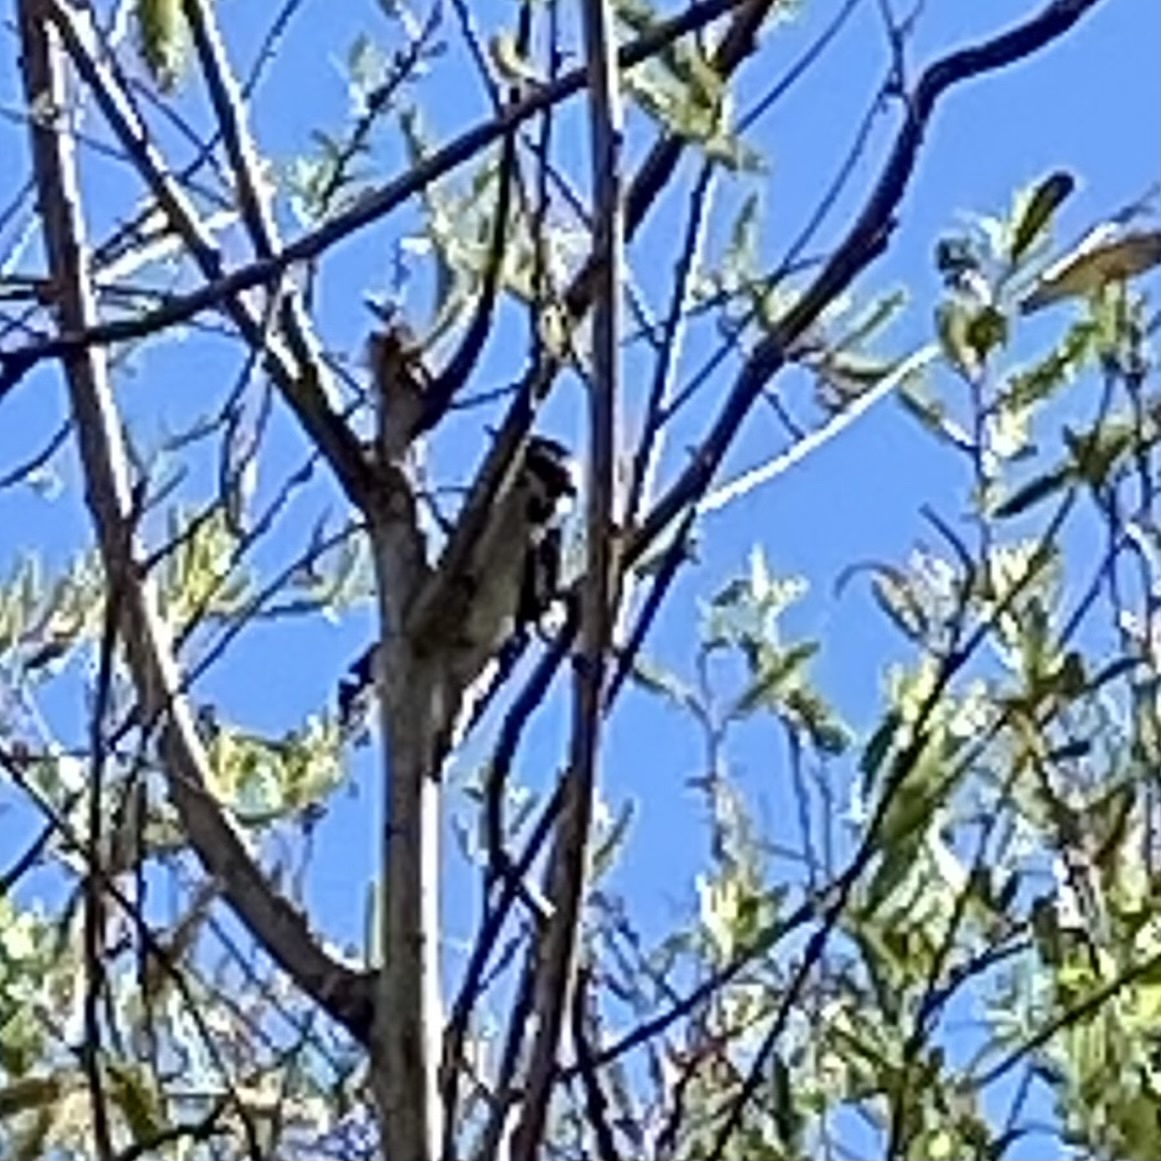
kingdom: Animalia
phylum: Chordata
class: Aves
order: Piciformes
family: Picidae
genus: Dryobates
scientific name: Dryobates pubescens
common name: Downy woodpecker
